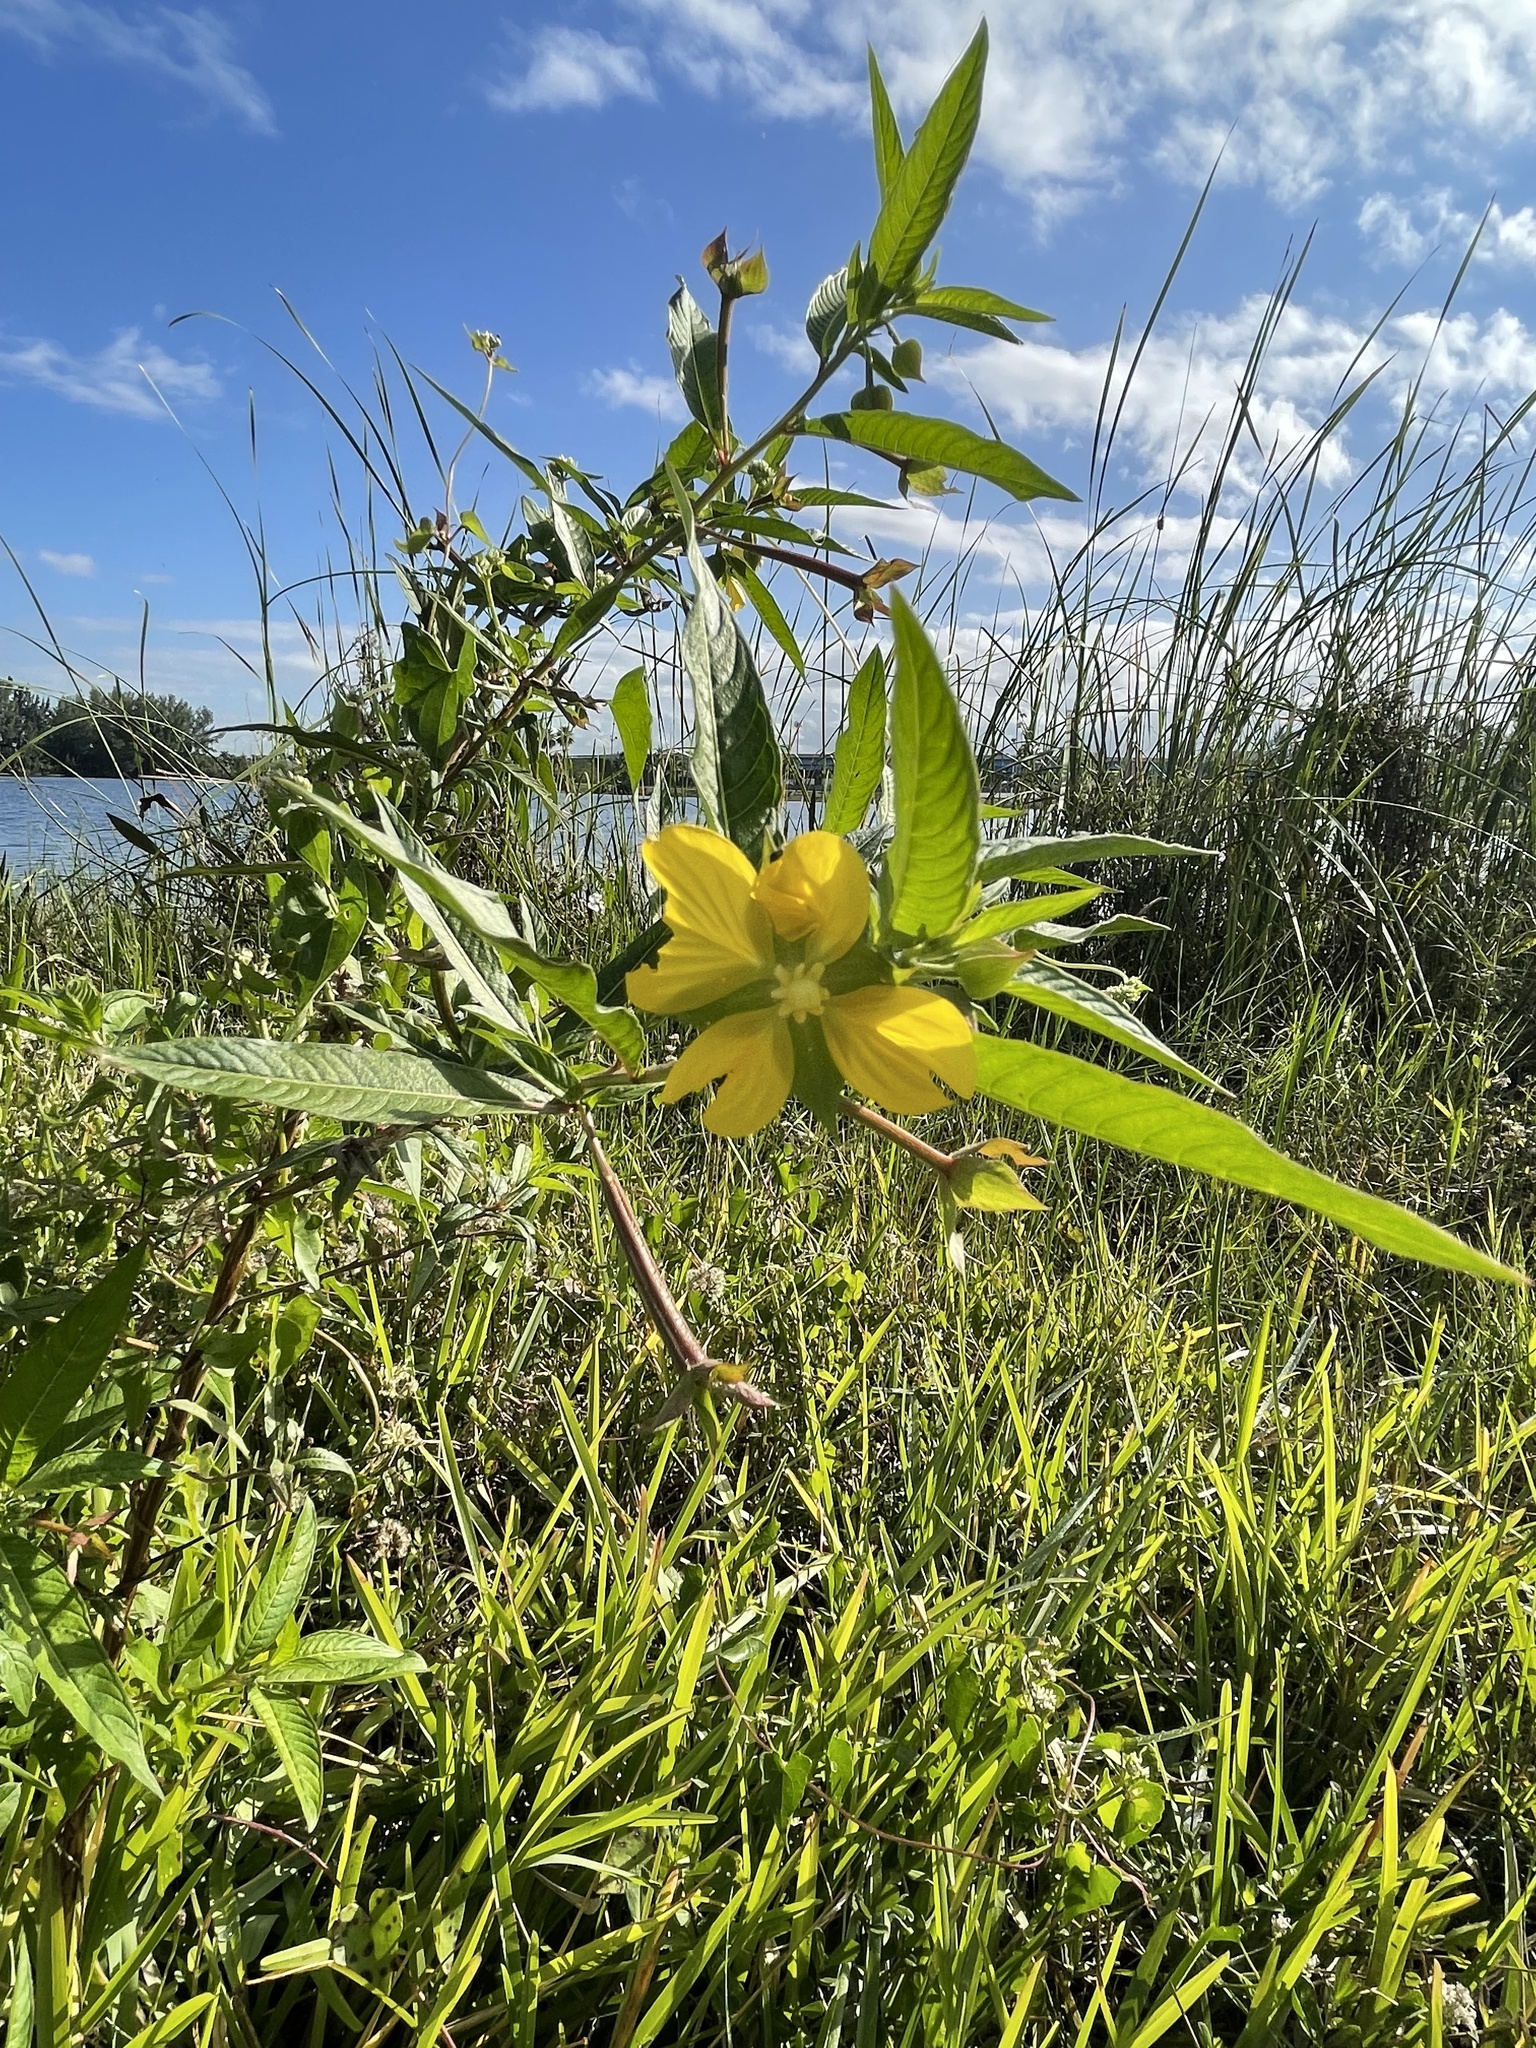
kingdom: Plantae
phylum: Tracheophyta
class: Magnoliopsida
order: Myrtales
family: Onagraceae
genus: Ludwigia
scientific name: Ludwigia octovalvis
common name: Water-primrose
